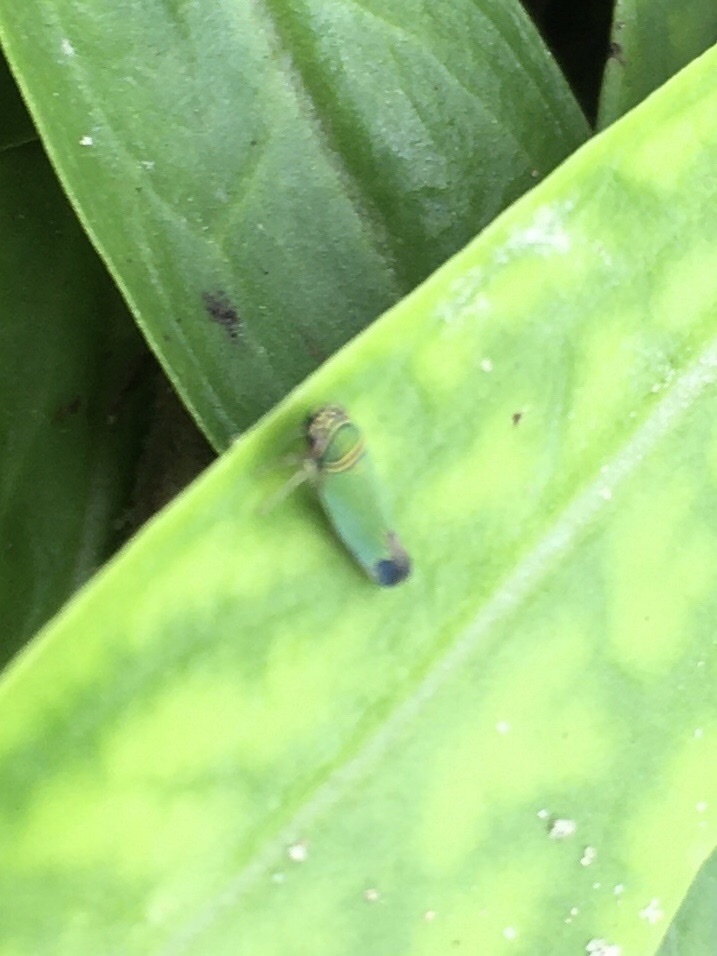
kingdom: Animalia
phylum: Arthropoda
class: Insecta
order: Hemiptera
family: Cicadellidae
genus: Tylozygus
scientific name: Tylozygus geometricus
